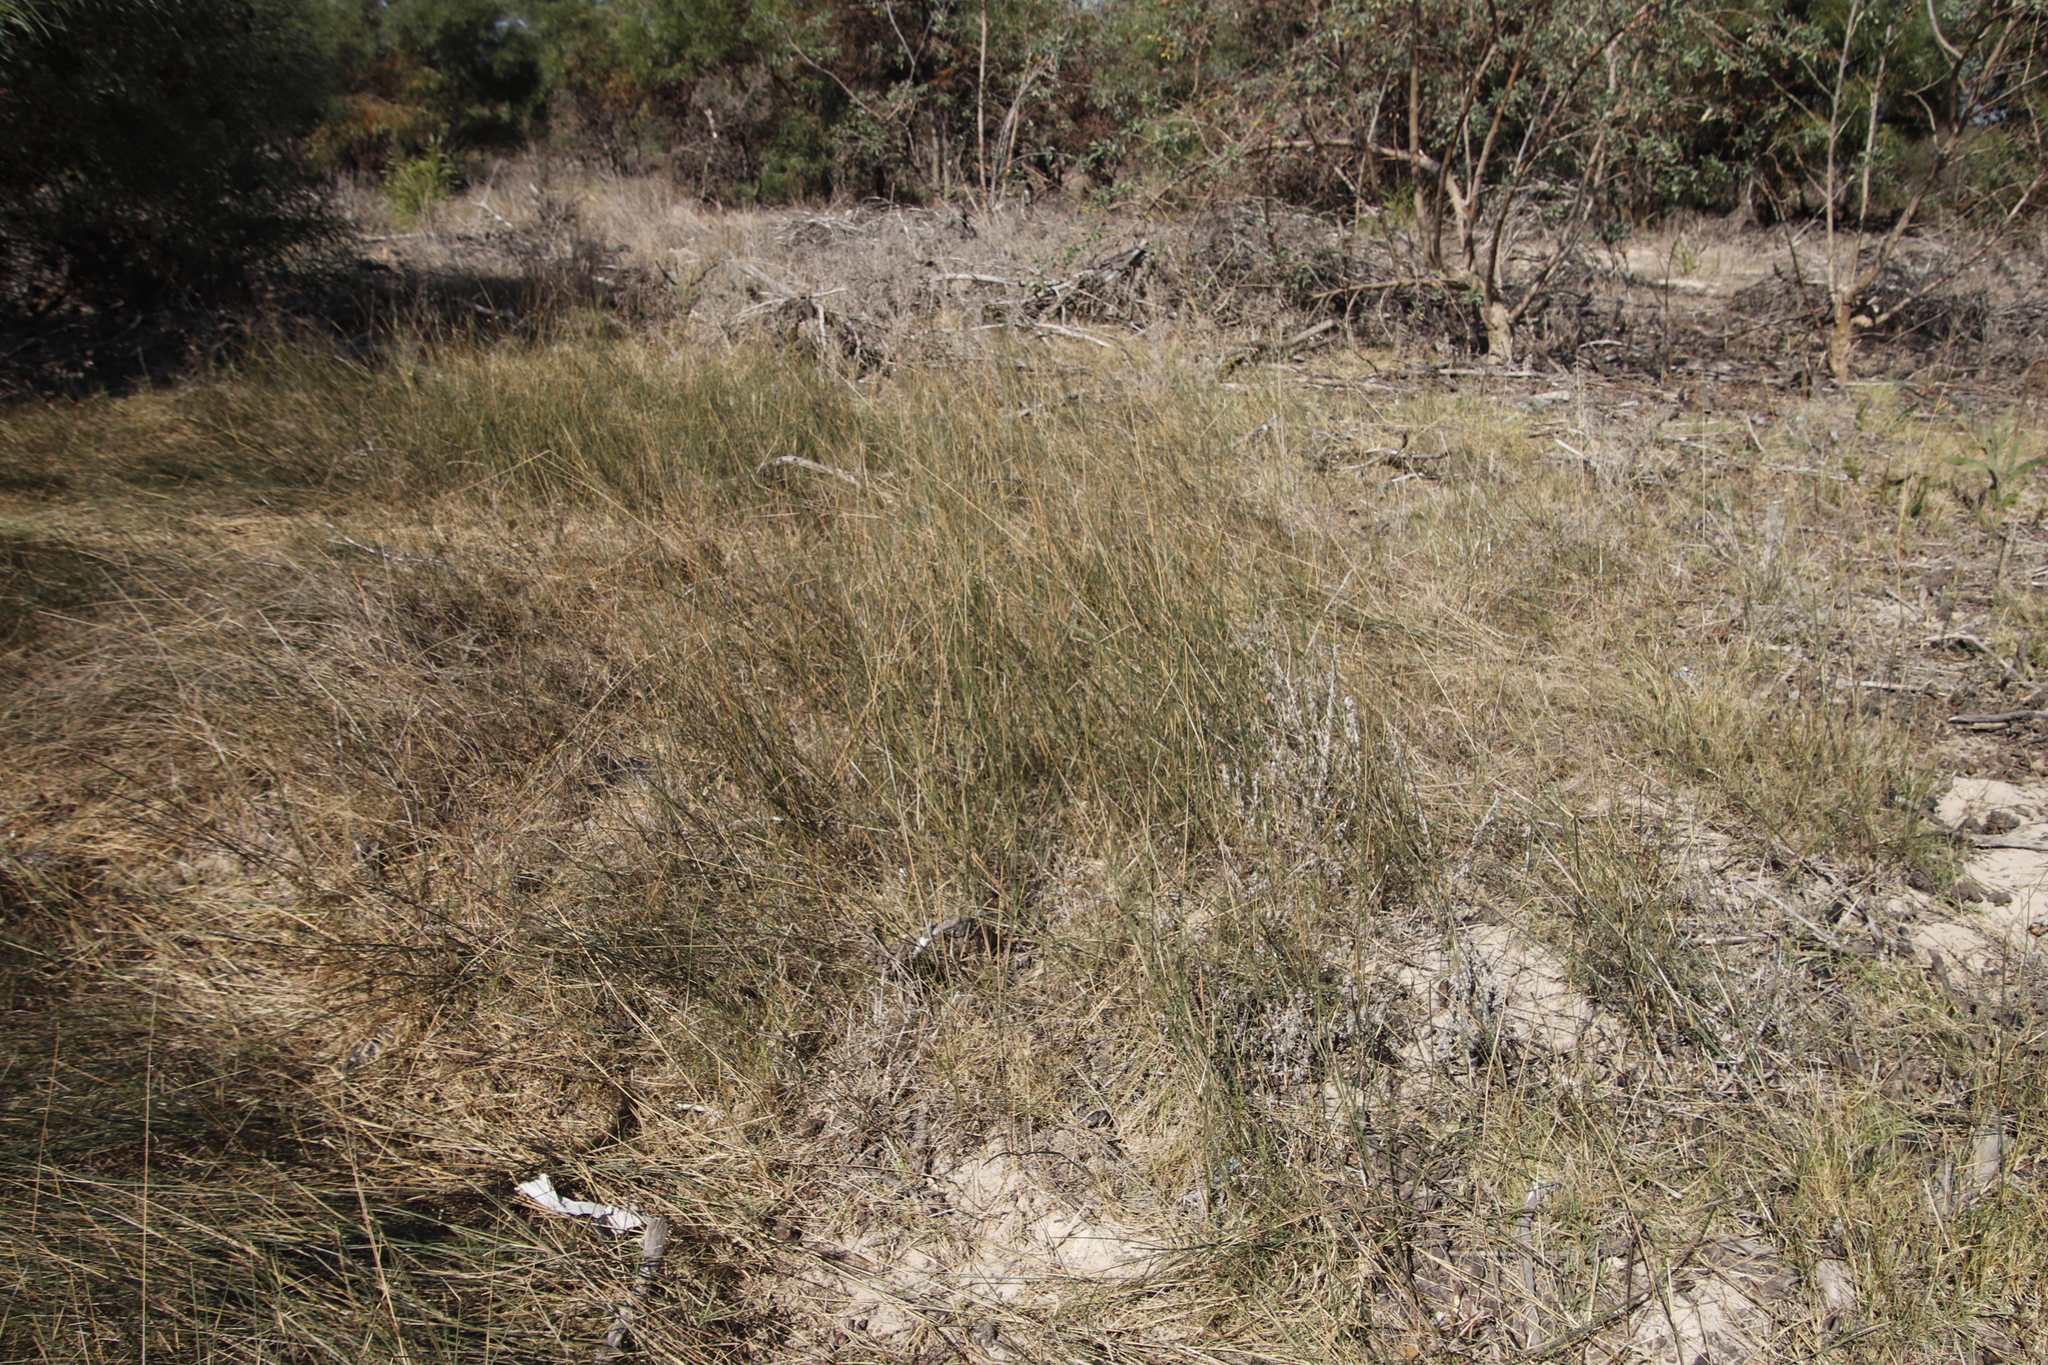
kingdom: Plantae
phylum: Tracheophyta
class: Liliopsida
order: Poales
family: Poaceae
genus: Ehrharta
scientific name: Ehrharta villosa
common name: Pyp grass
